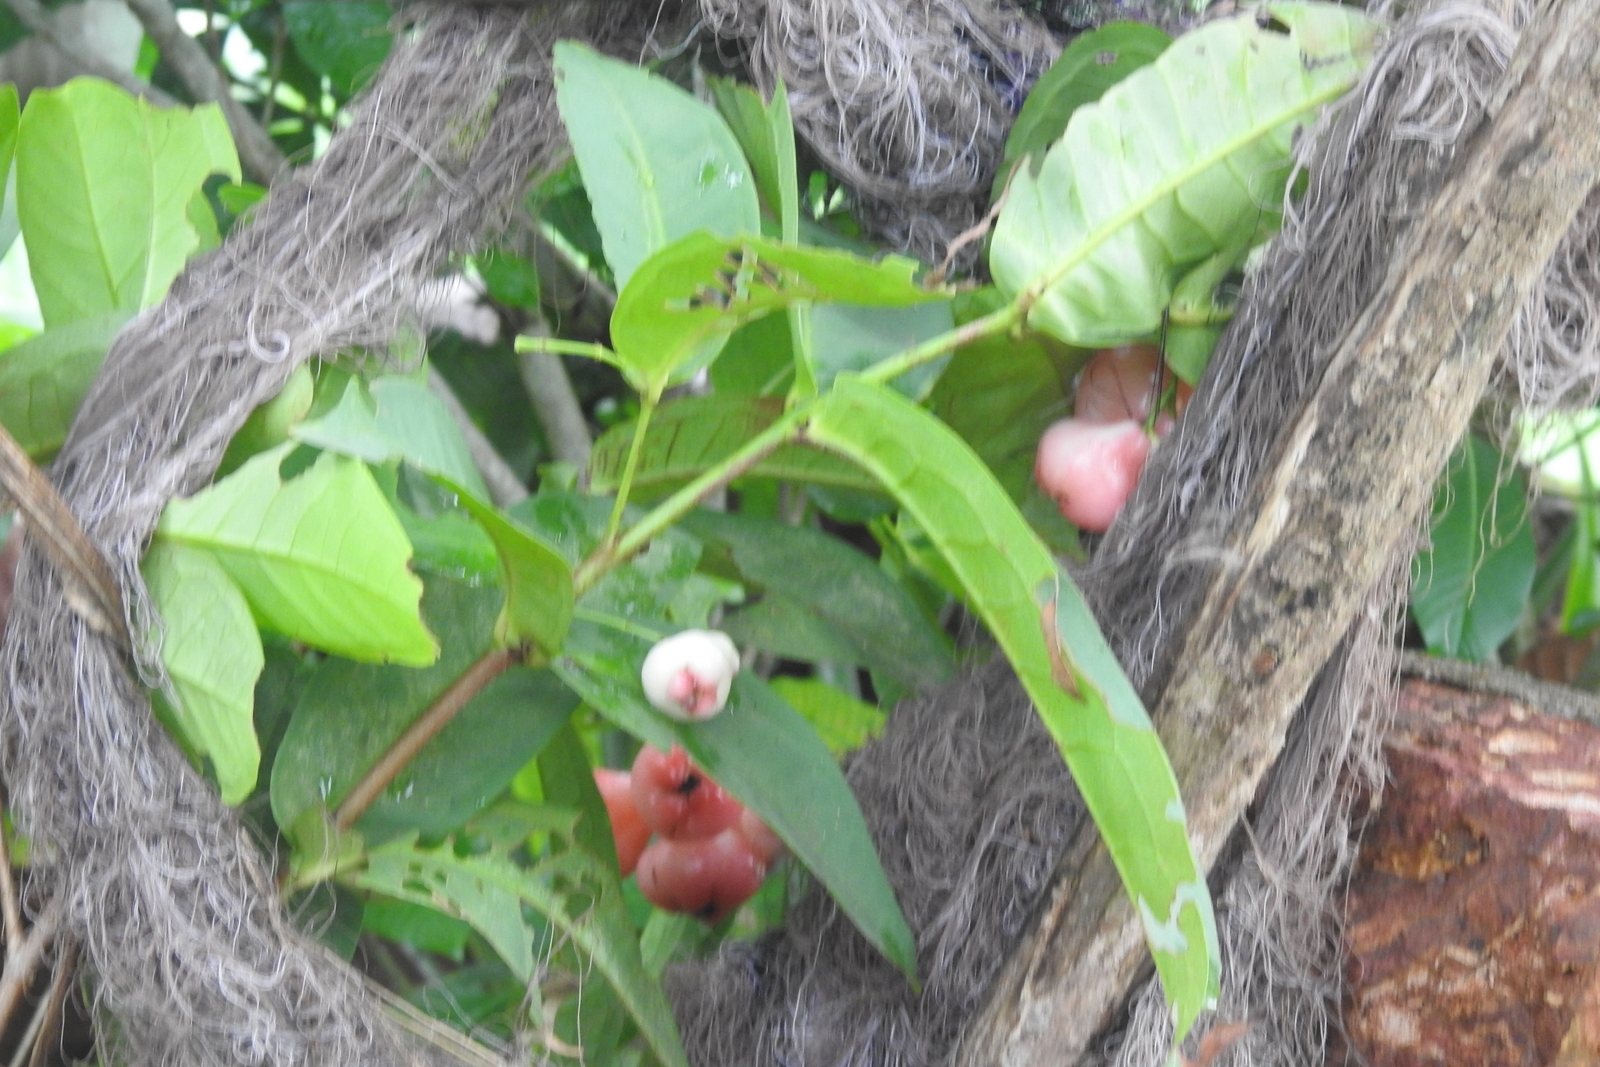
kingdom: Plantae
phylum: Tracheophyta
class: Magnoliopsida
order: Myrtales
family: Myrtaceae
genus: Syzygium
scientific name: Syzygium samarangense
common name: Semarang rose-apple
